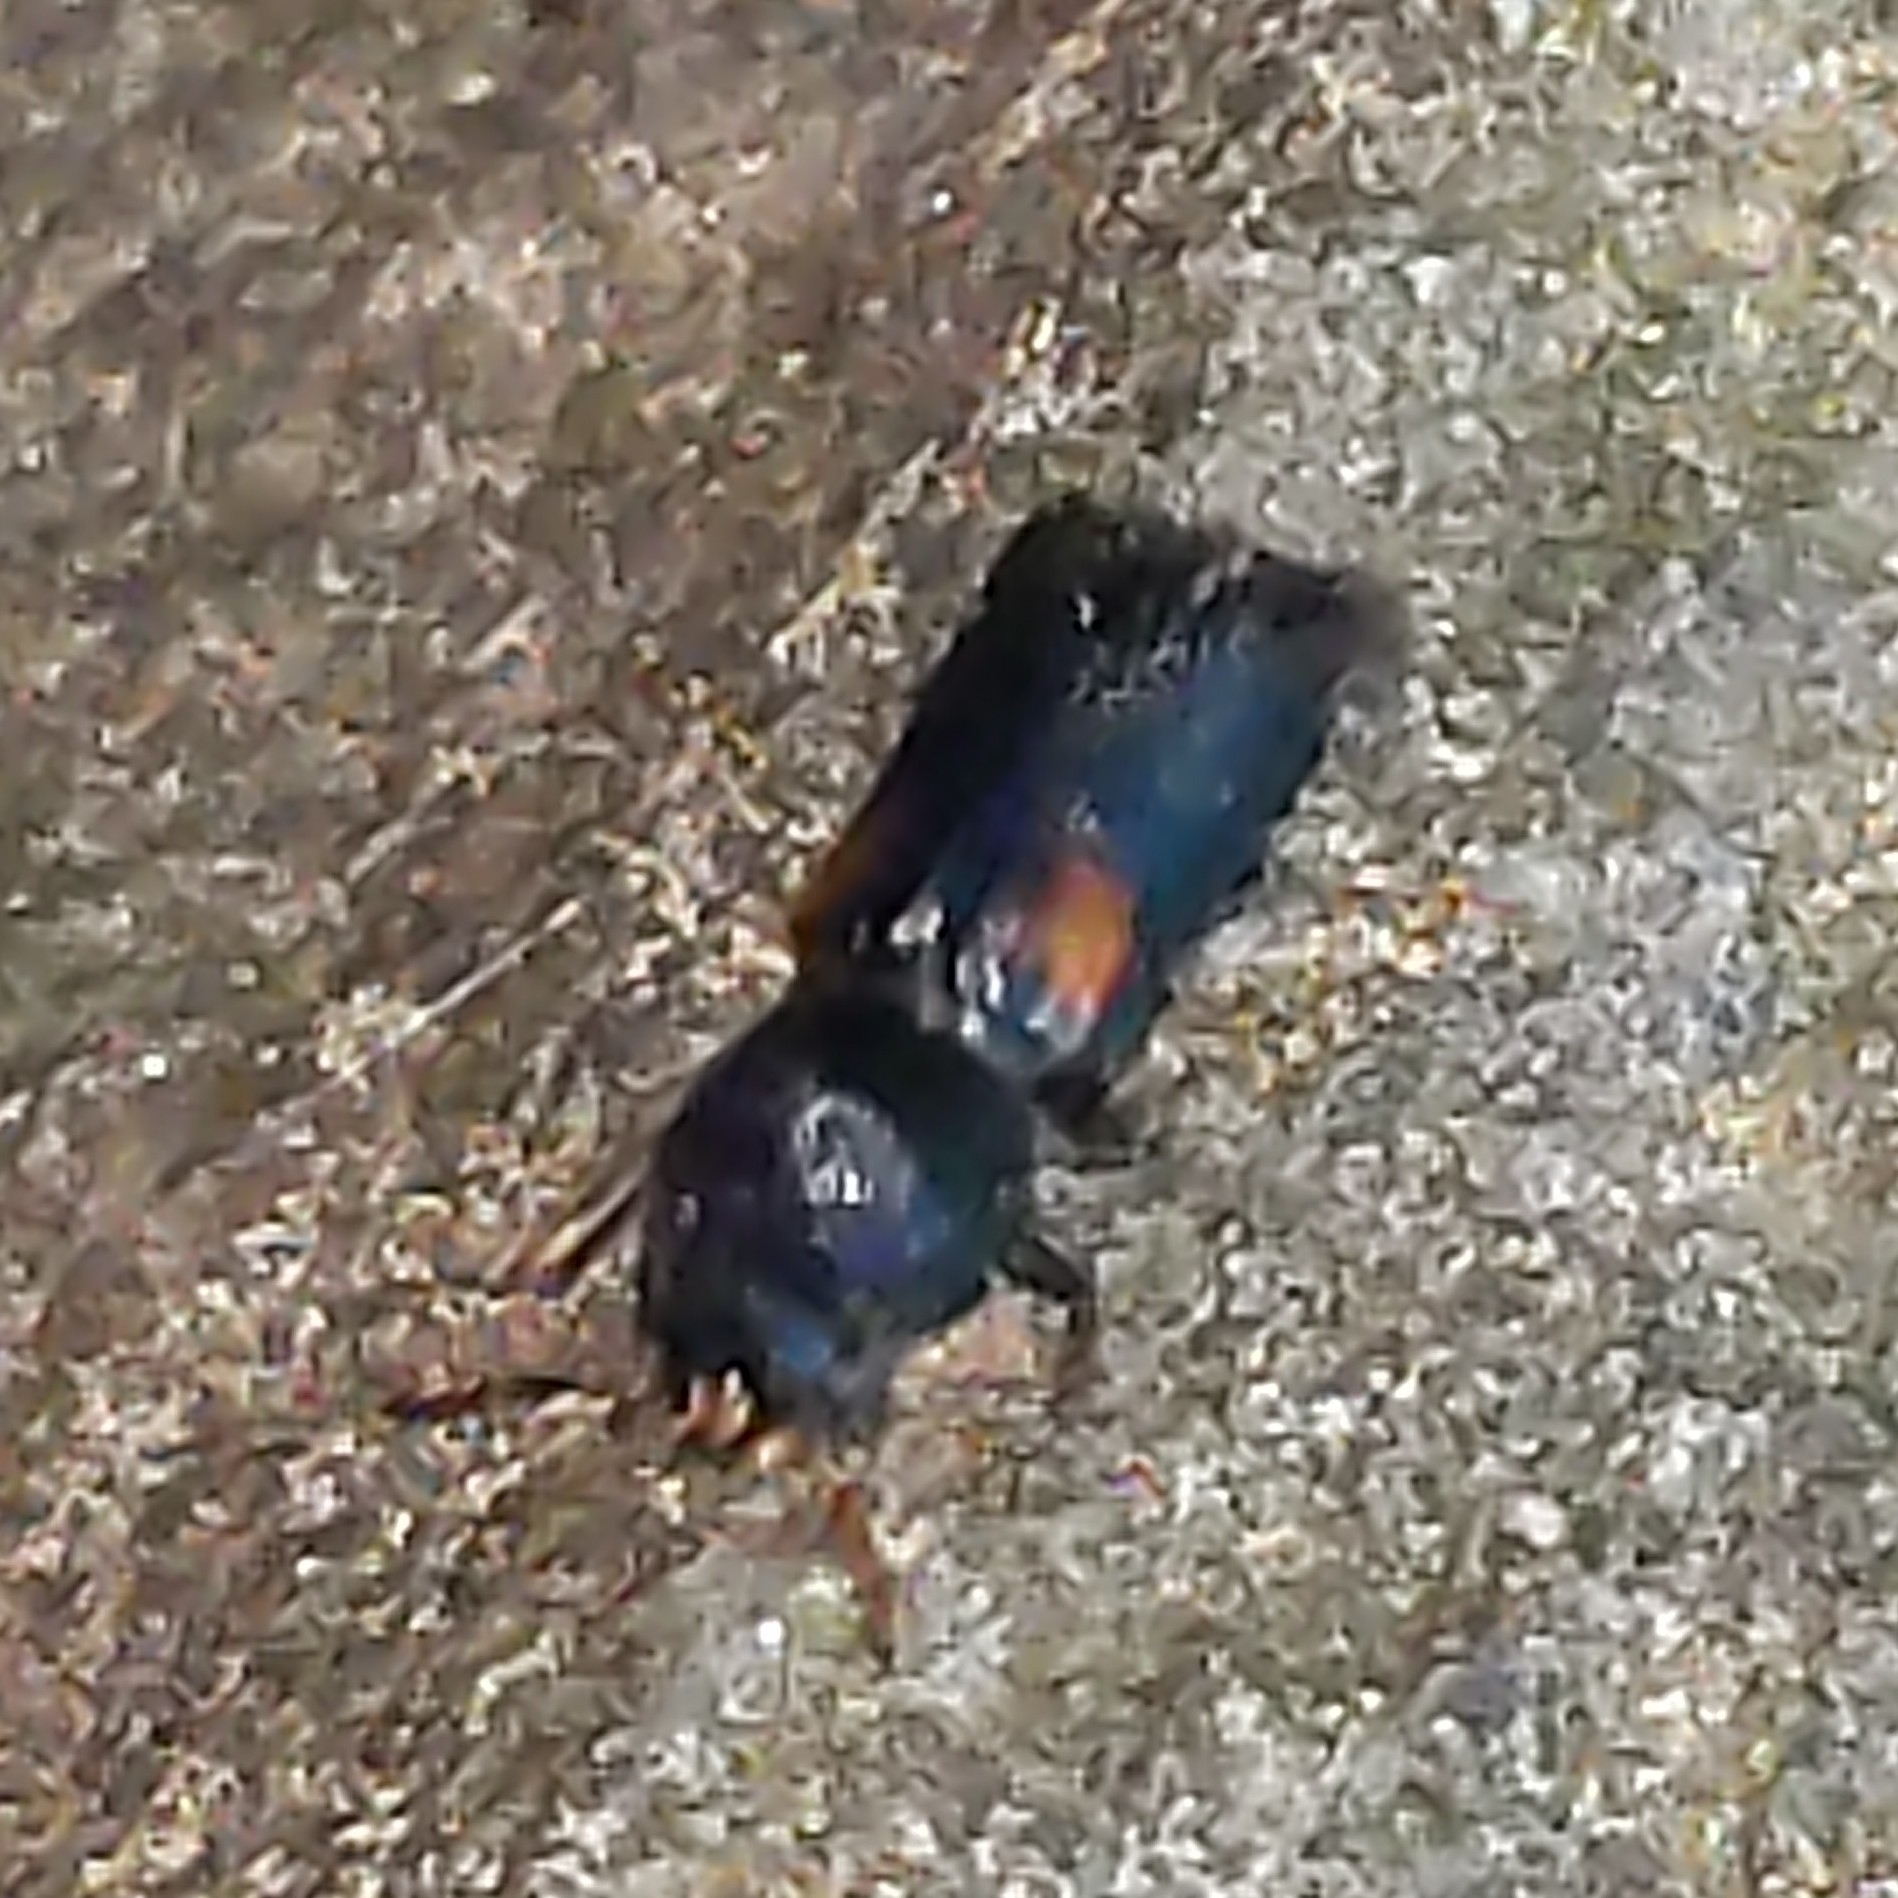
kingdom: Animalia
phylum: Arthropoda
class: Insecta
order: Coleoptera
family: Bostrichidae
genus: Xylobiops
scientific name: Xylobiops basilaris
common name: Red-shouldered bostrichid
